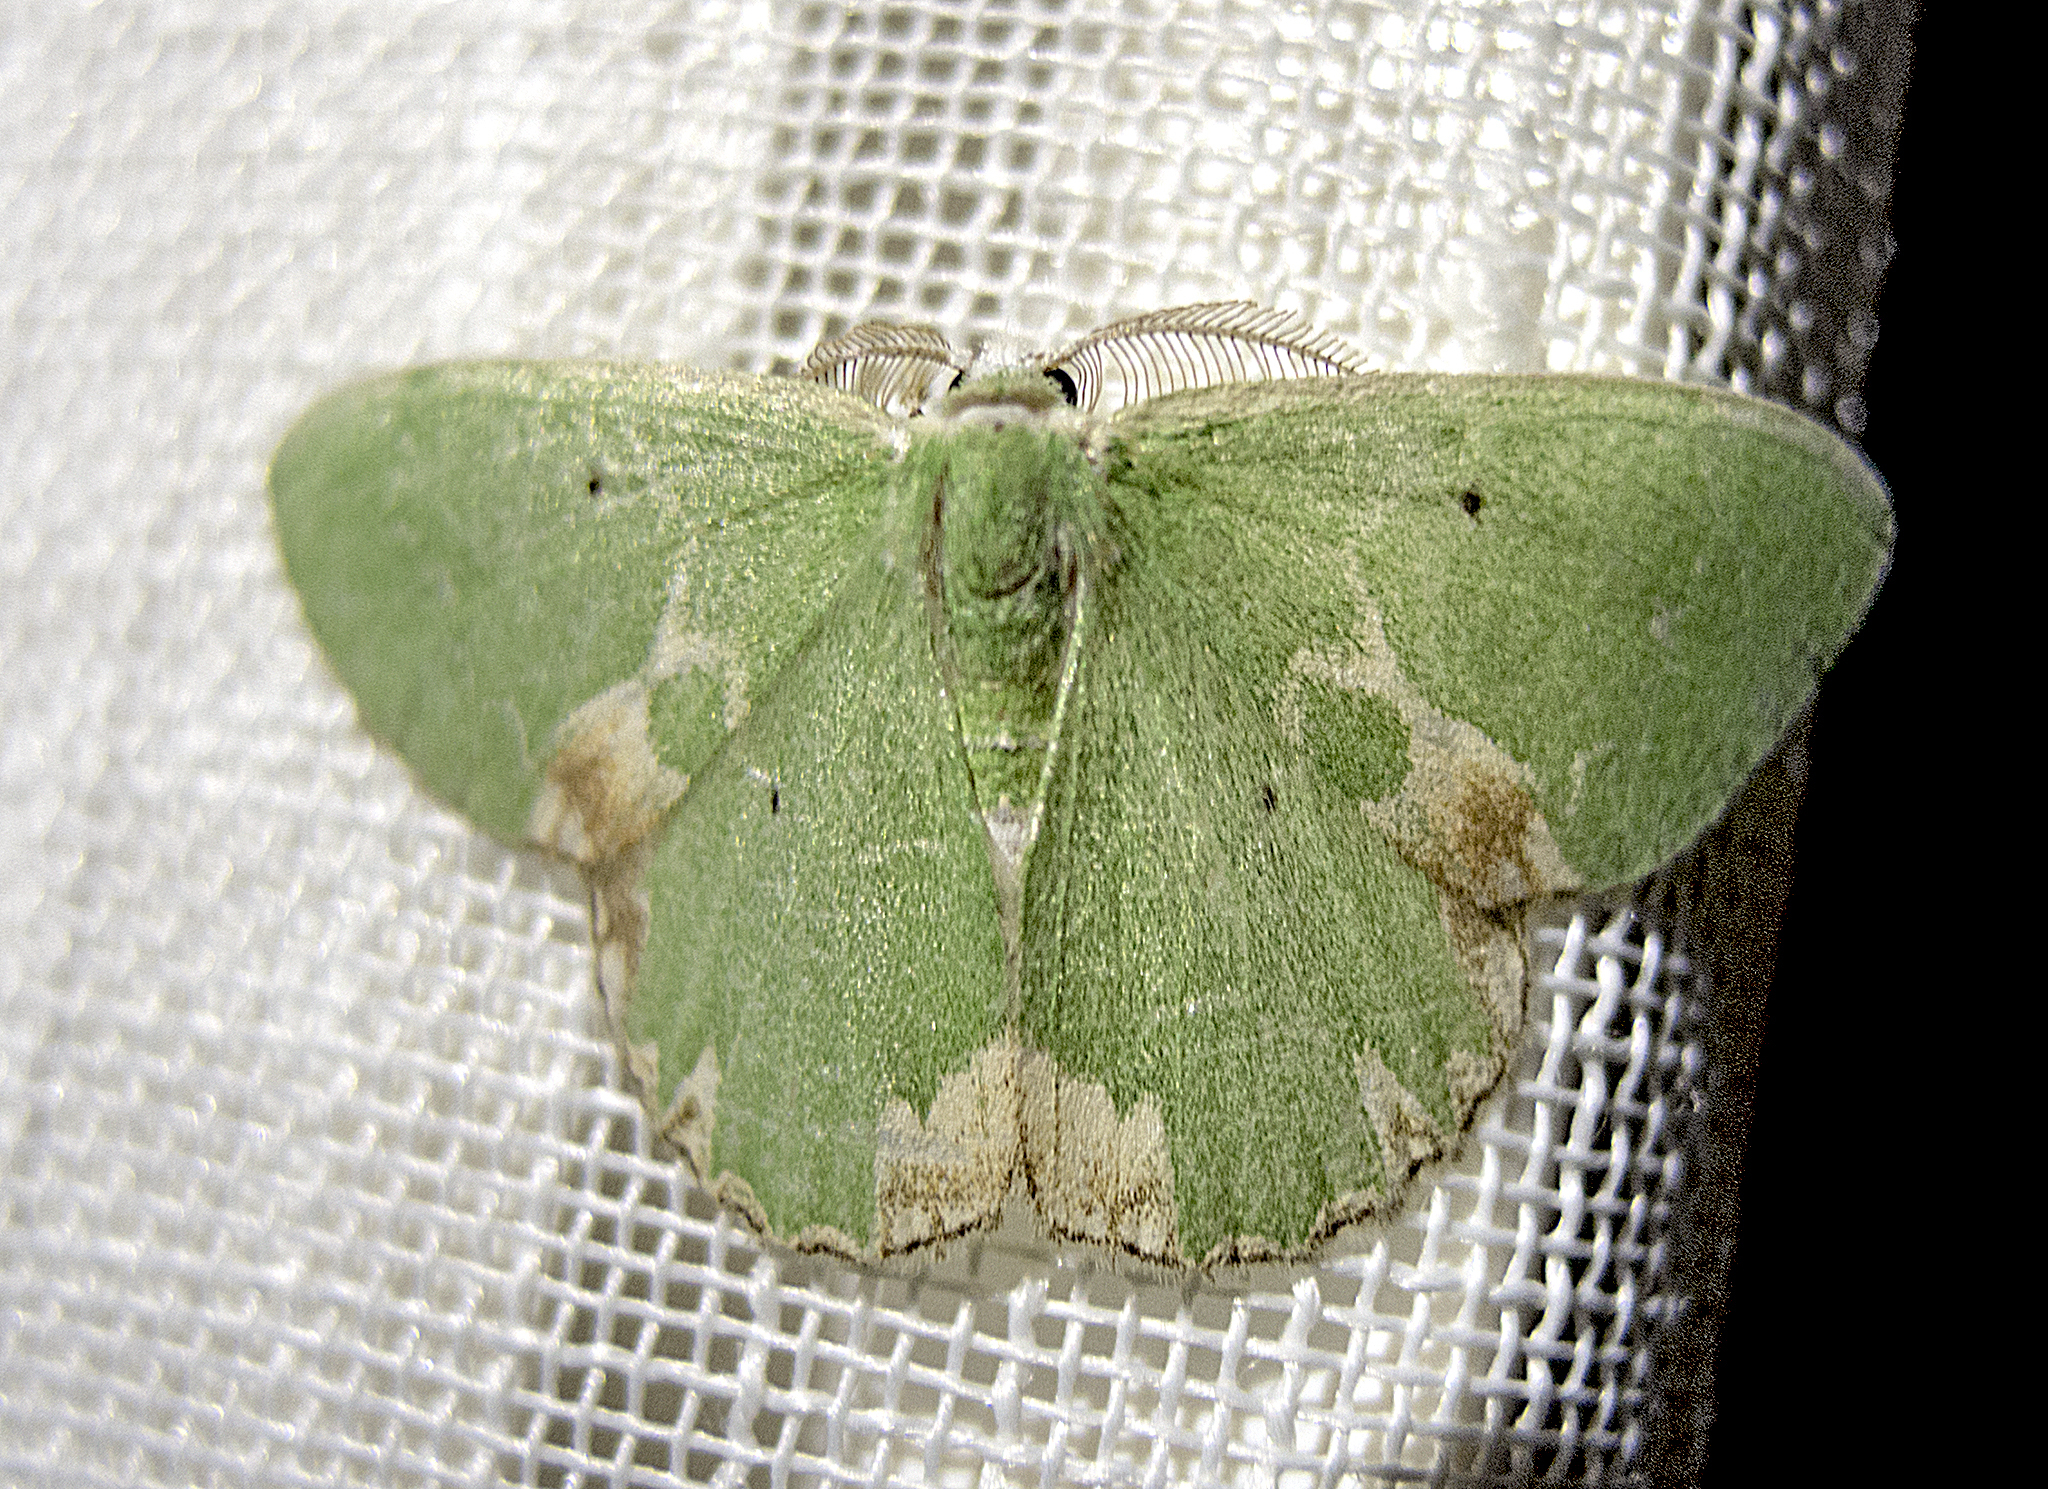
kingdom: Animalia
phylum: Arthropoda
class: Insecta
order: Lepidoptera
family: Geometridae
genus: Comibaena
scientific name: Comibaena bajularia
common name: Blotched emerald
